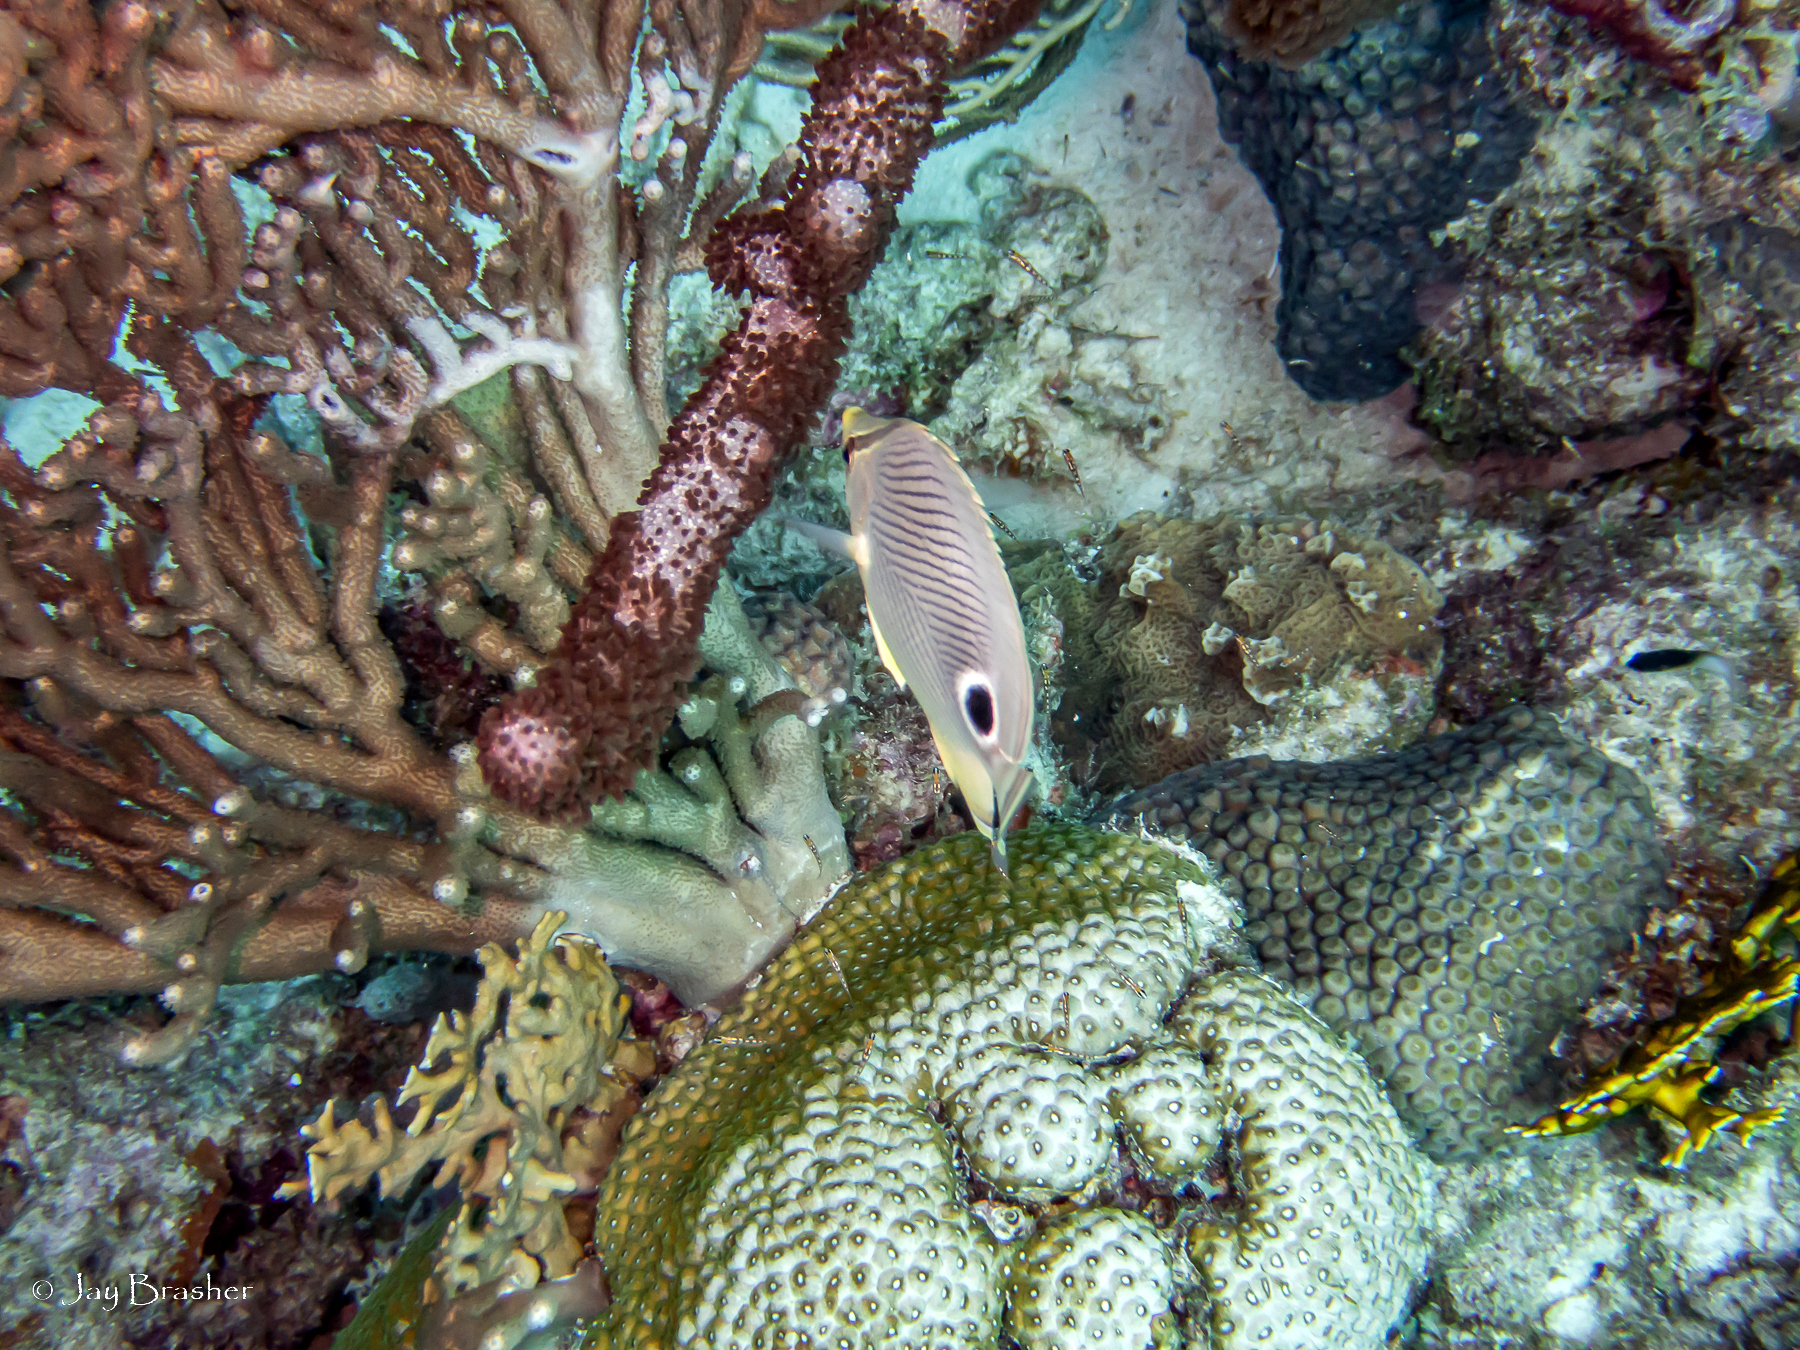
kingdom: Animalia
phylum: Cnidaria
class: Anthozoa
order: Scleralcyonacea
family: Briareidae
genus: Briareum
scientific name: Briareum asbestinum
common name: Corky sea finger
